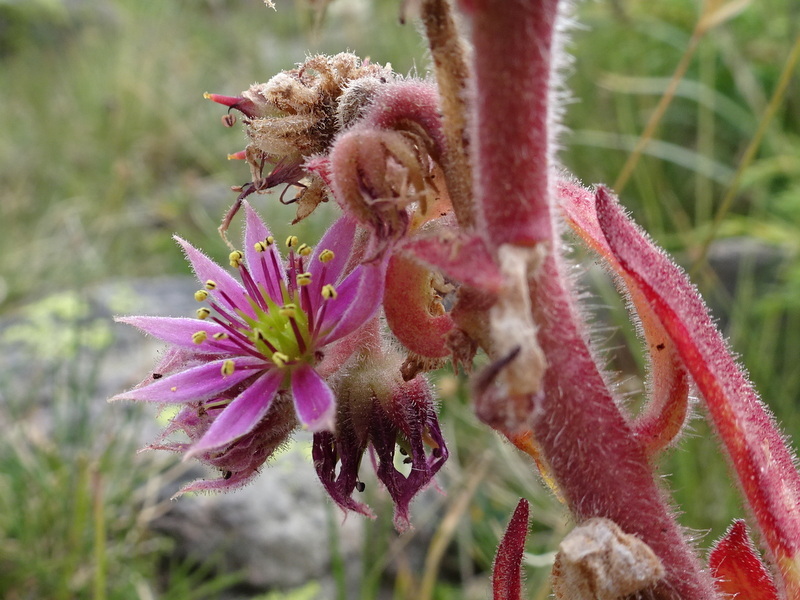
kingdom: Plantae
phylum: Tracheophyta
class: Magnoliopsida
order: Saxifragales
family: Crassulaceae
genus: Sempervivum
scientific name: Sempervivum tectorum
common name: House-leek
